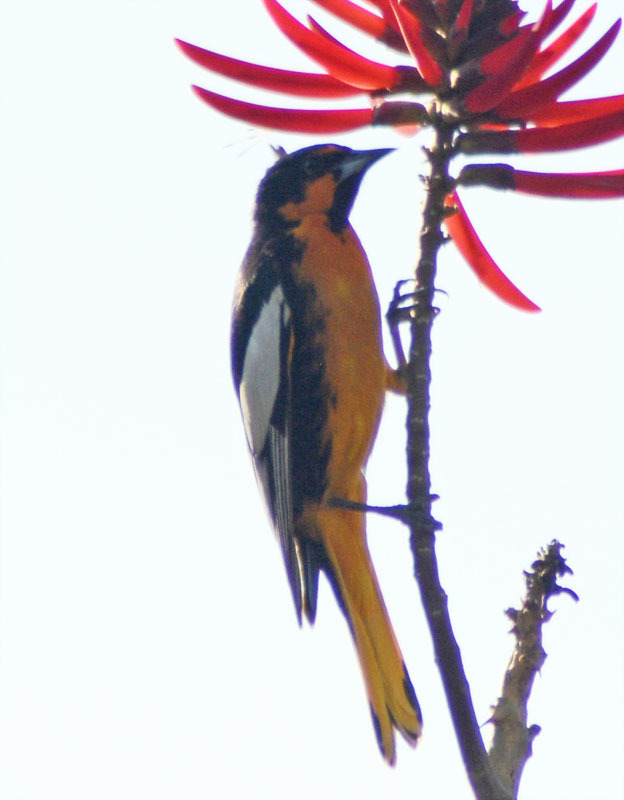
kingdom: Animalia
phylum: Chordata
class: Aves
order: Passeriformes
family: Icteridae
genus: Icterus
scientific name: Icterus abeillei
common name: Black-backed oriole
